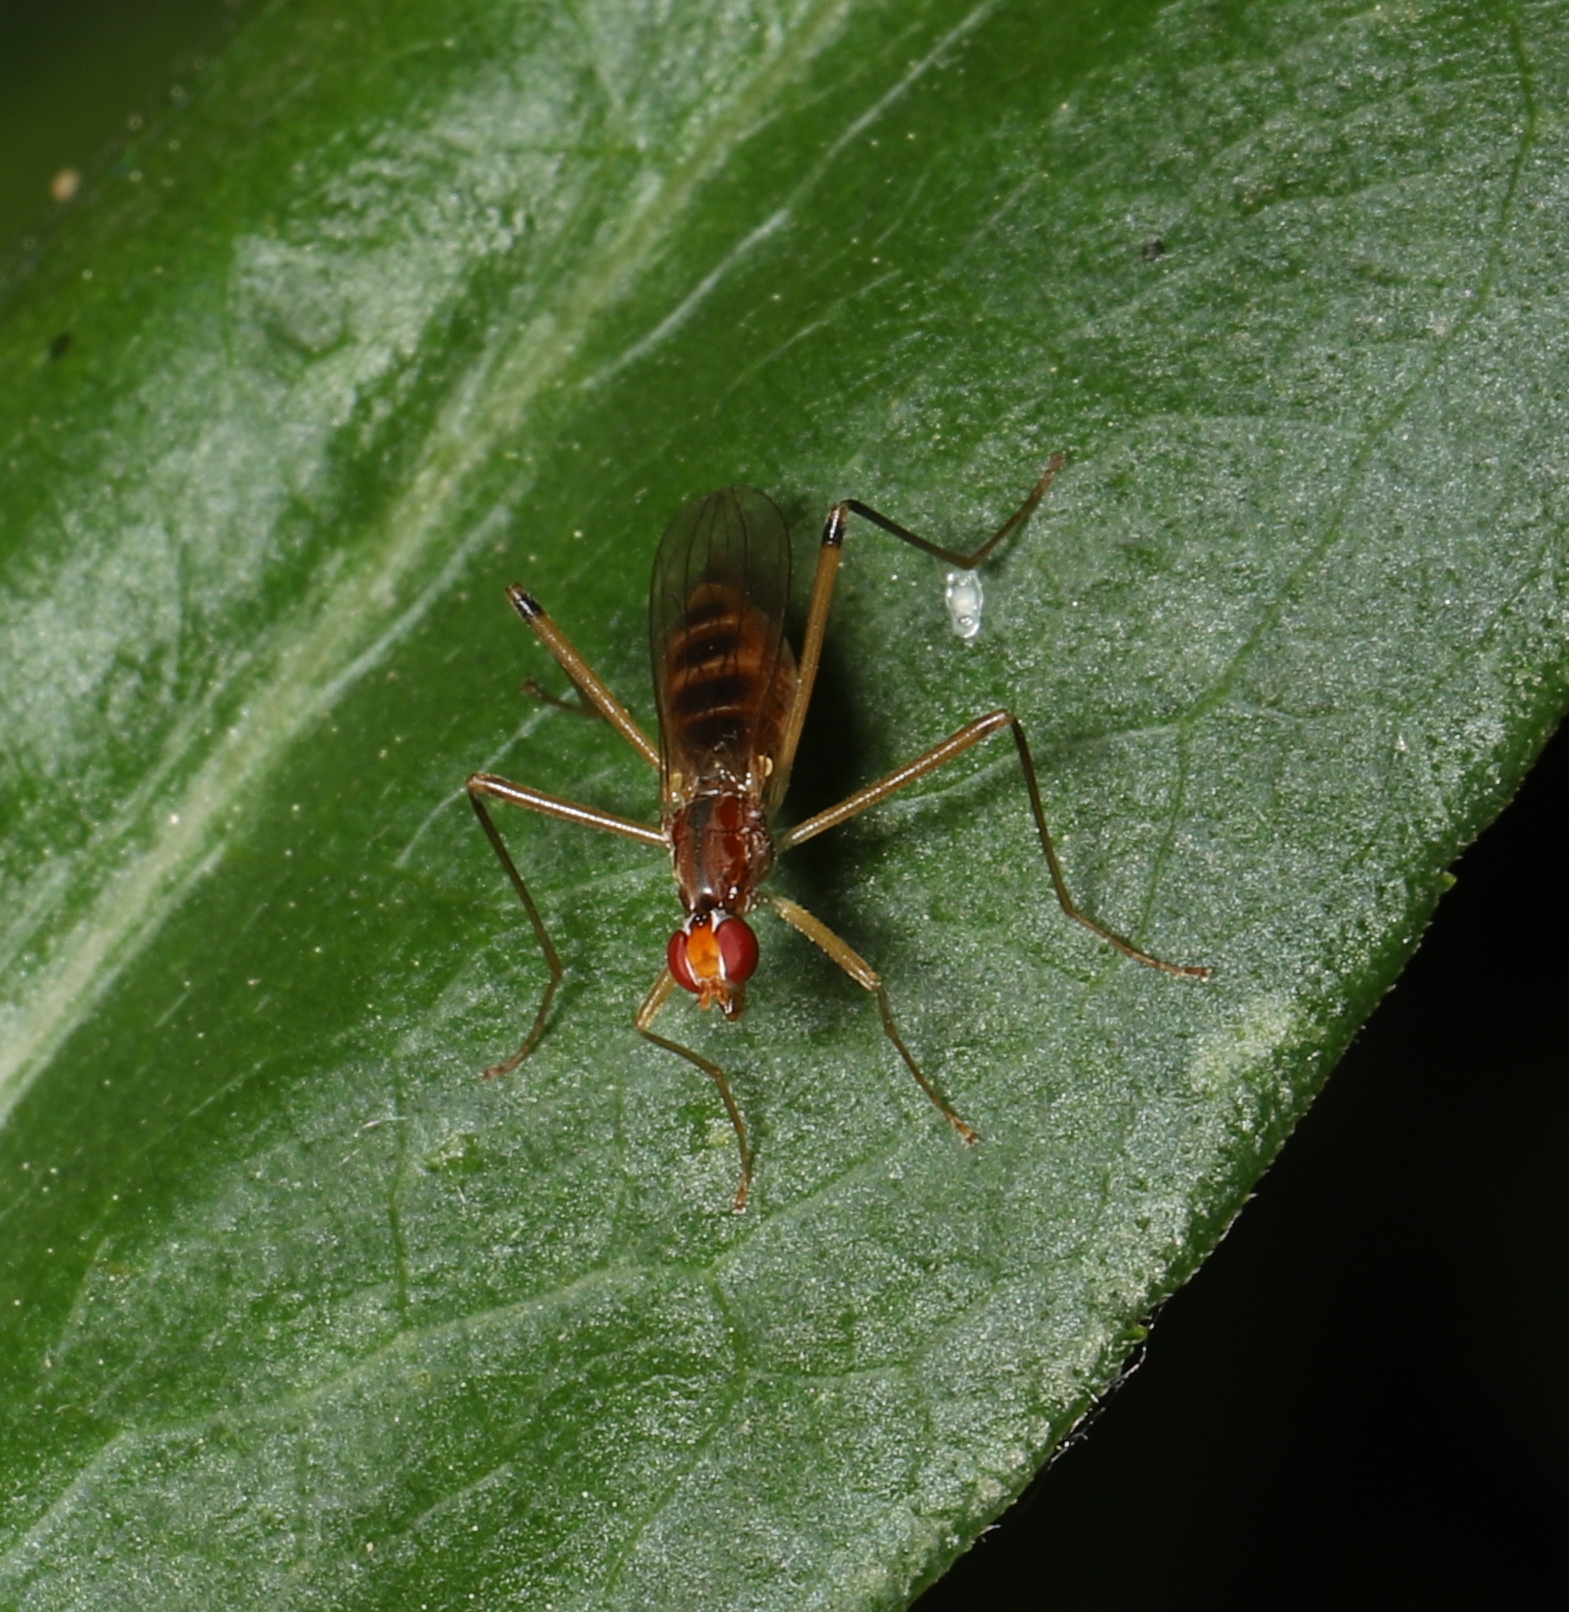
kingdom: Animalia
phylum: Arthropoda
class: Insecta
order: Diptera
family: Micropezidae
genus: Compsobata
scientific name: Compsobata univitta
